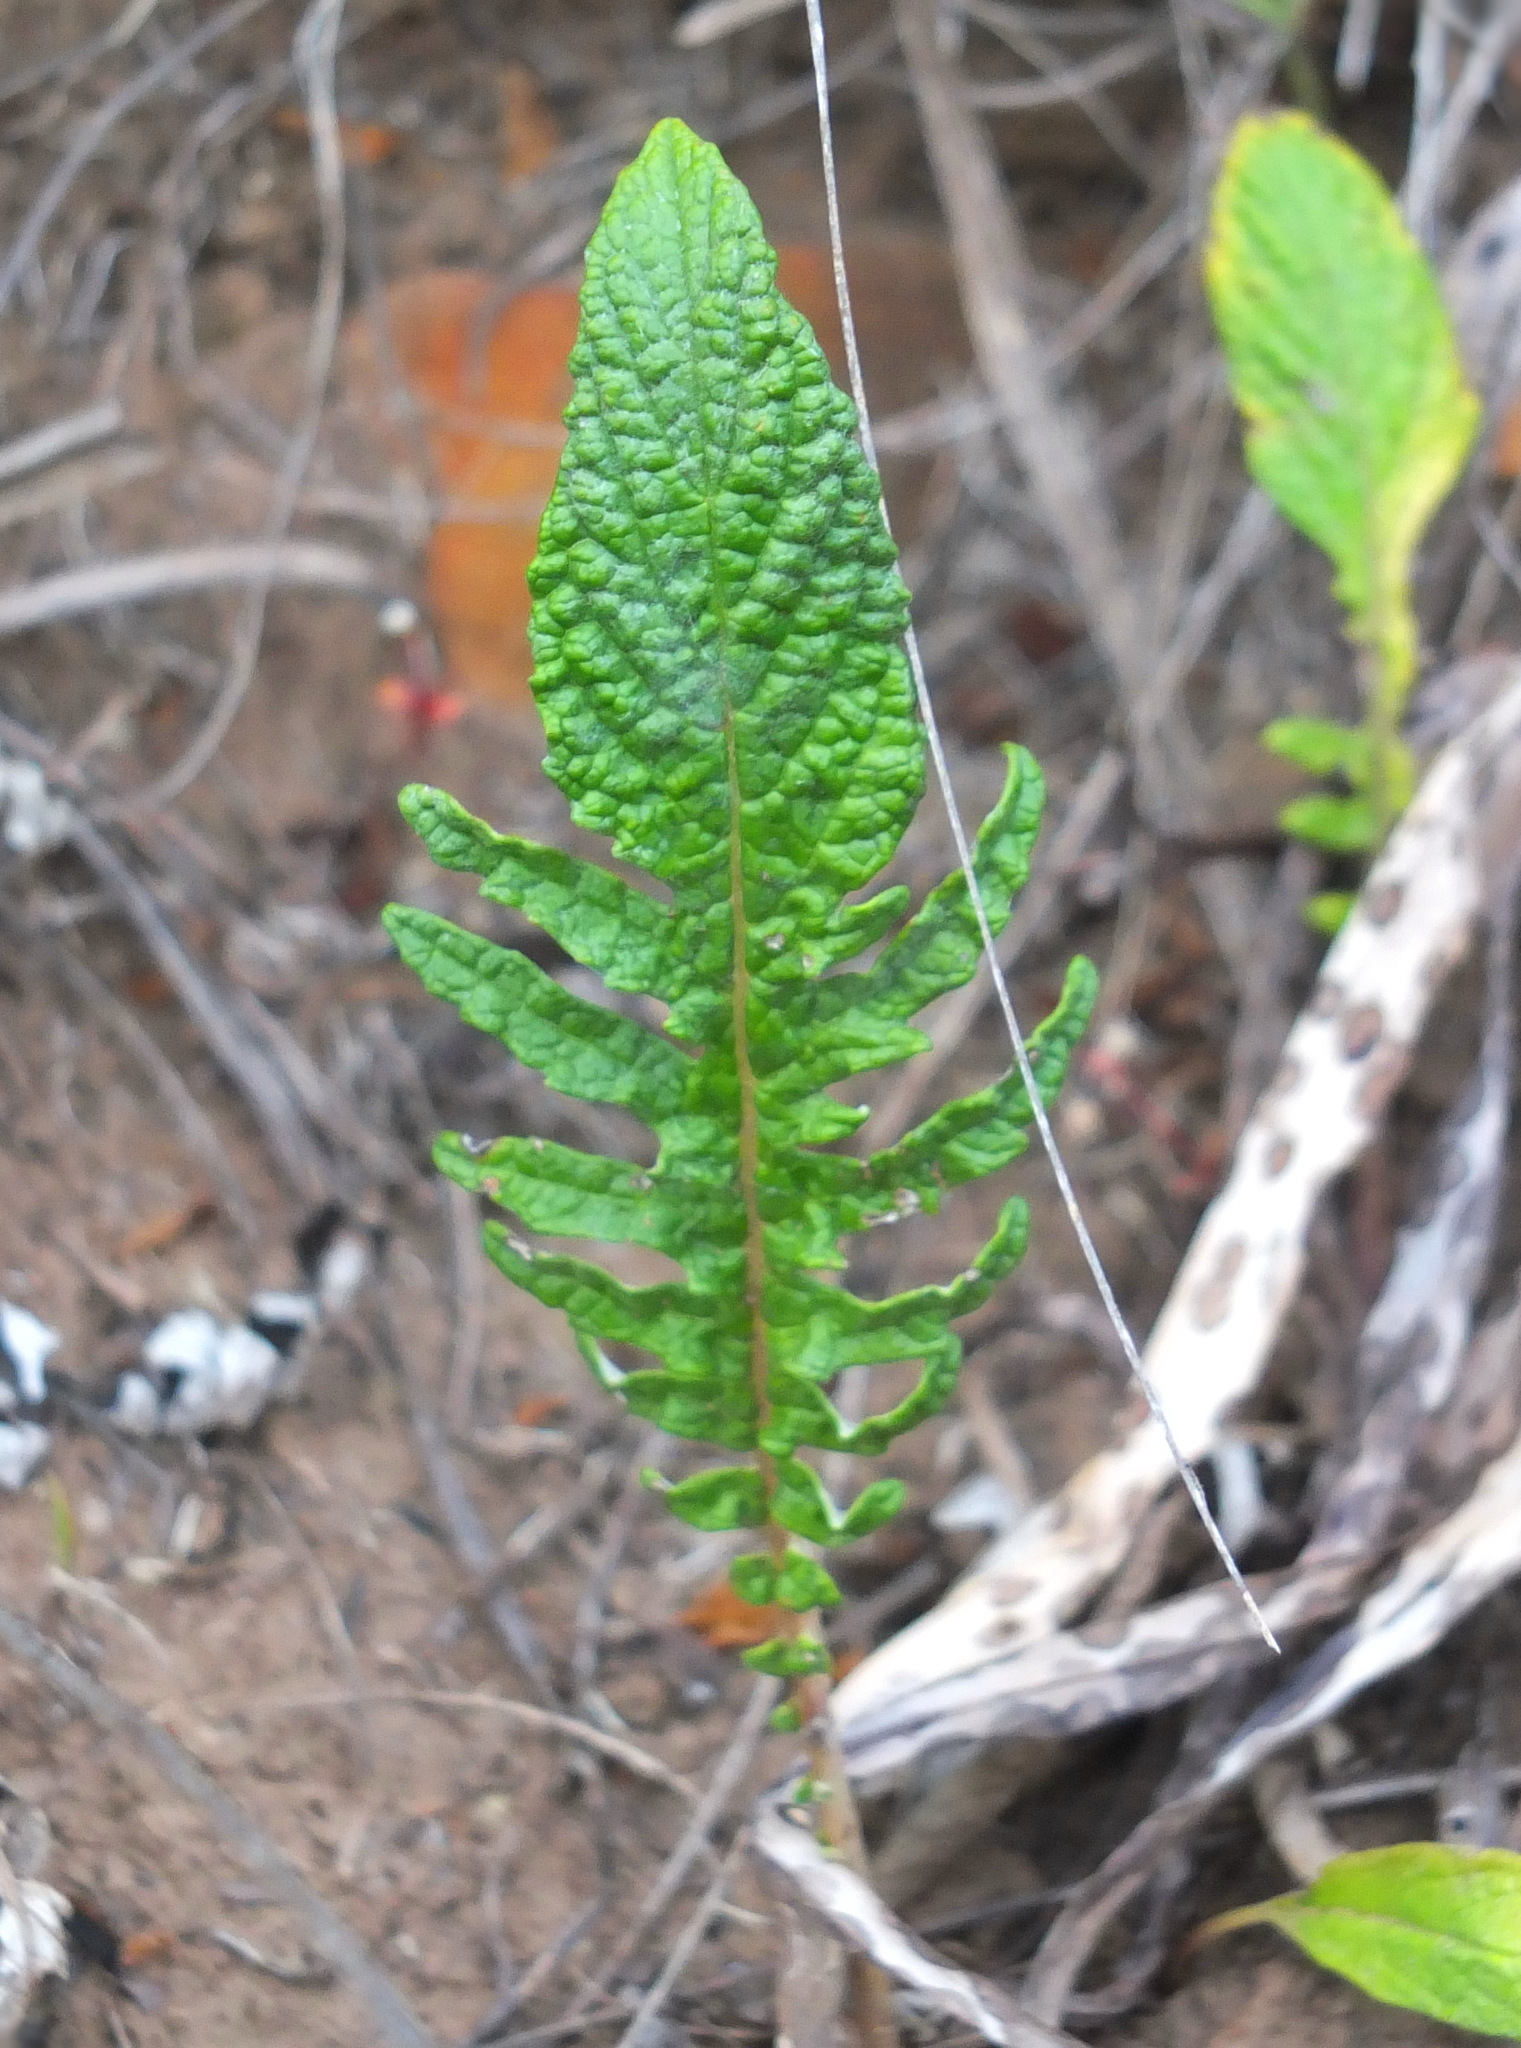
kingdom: Plantae
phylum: Tracheophyta
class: Magnoliopsida
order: Asterales
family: Asteraceae
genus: Leuzea
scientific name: Leuzea acaulis
